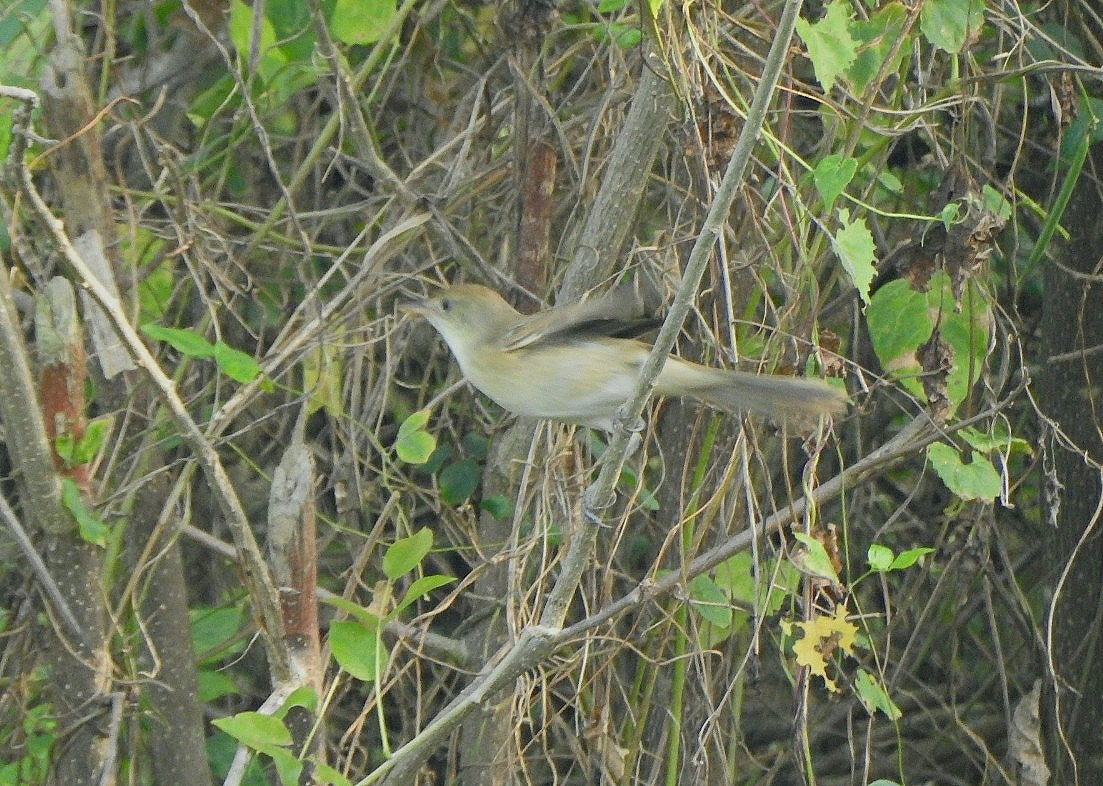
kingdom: Animalia
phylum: Chordata
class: Aves
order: Passeriformes
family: Acrocephalidae
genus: Iduna
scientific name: Iduna aedon
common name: Thick-billed warbler
